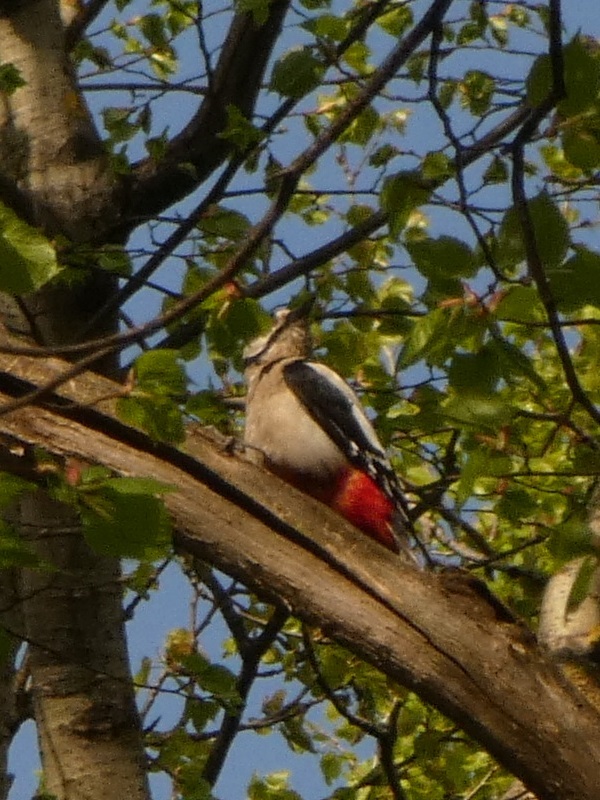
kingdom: Animalia
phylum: Chordata
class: Aves
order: Piciformes
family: Picidae
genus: Dendrocopos
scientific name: Dendrocopos major
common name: Great spotted woodpecker
